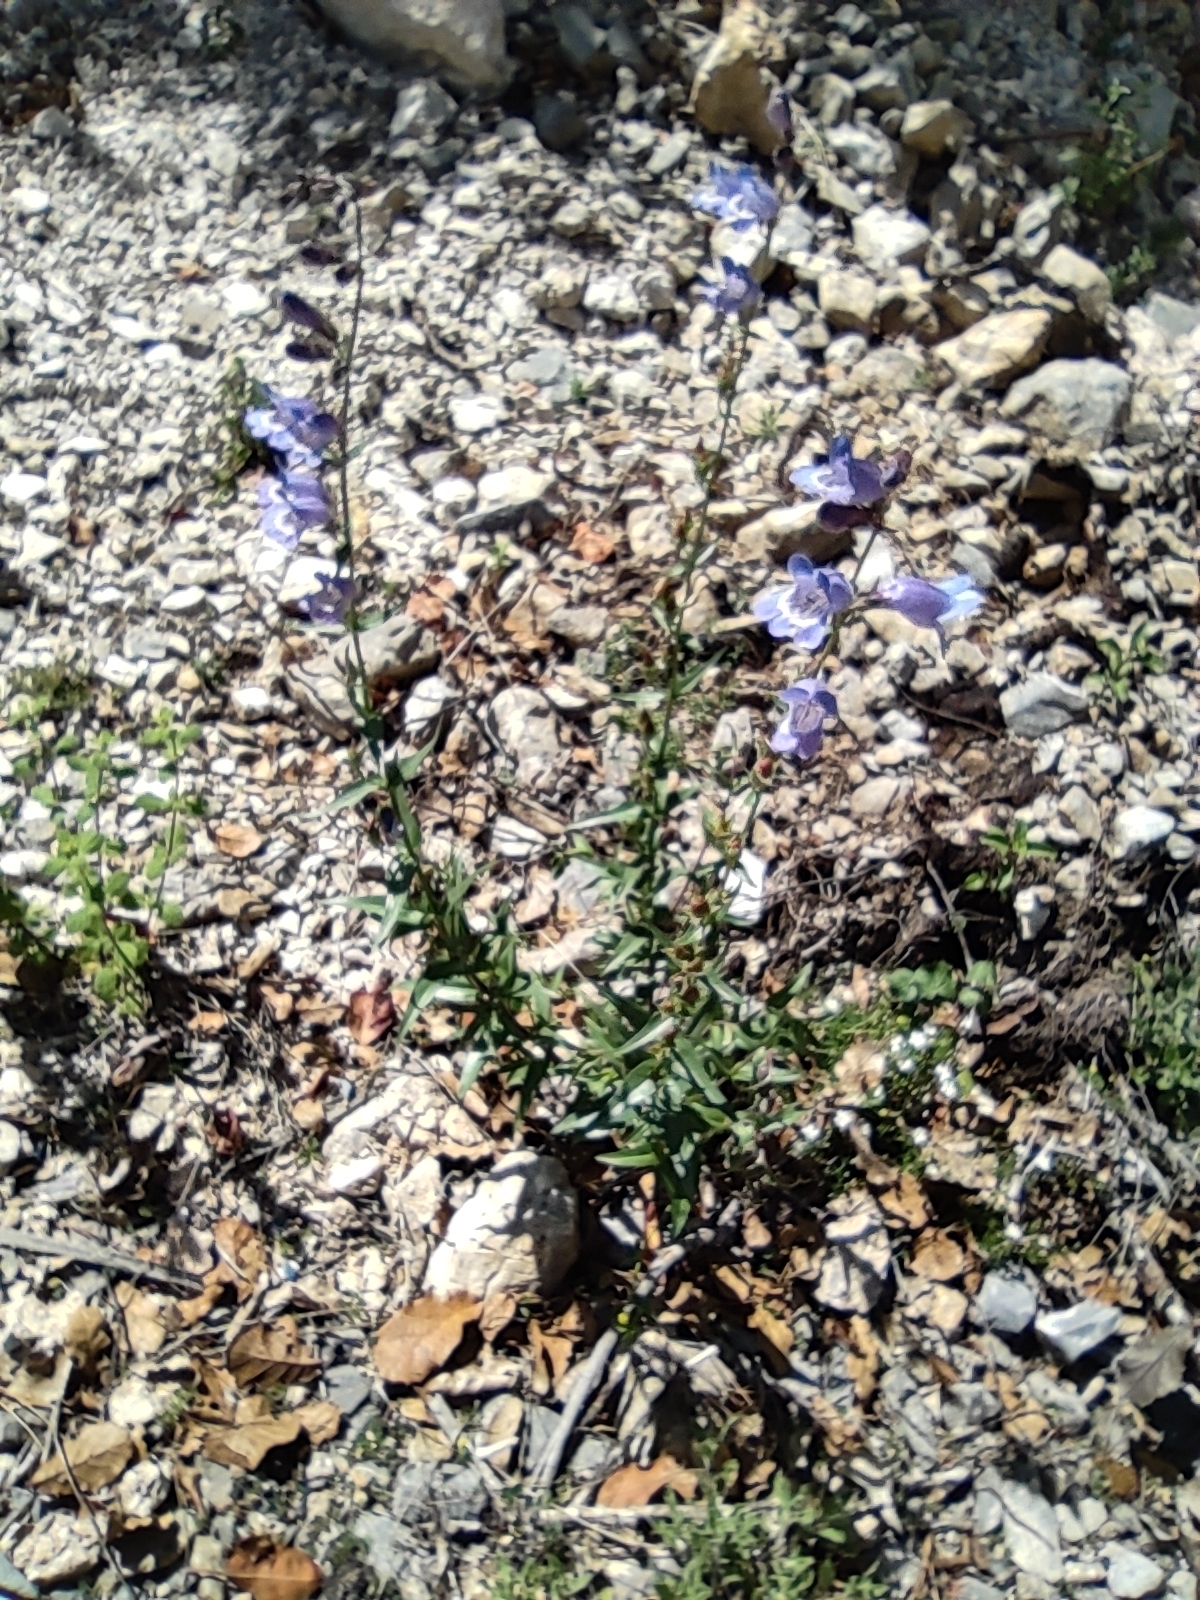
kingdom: Plantae
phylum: Tracheophyta
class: Magnoliopsida
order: Lamiales
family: Plantaginaceae
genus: Penstemon
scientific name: Penstemon leonensis
